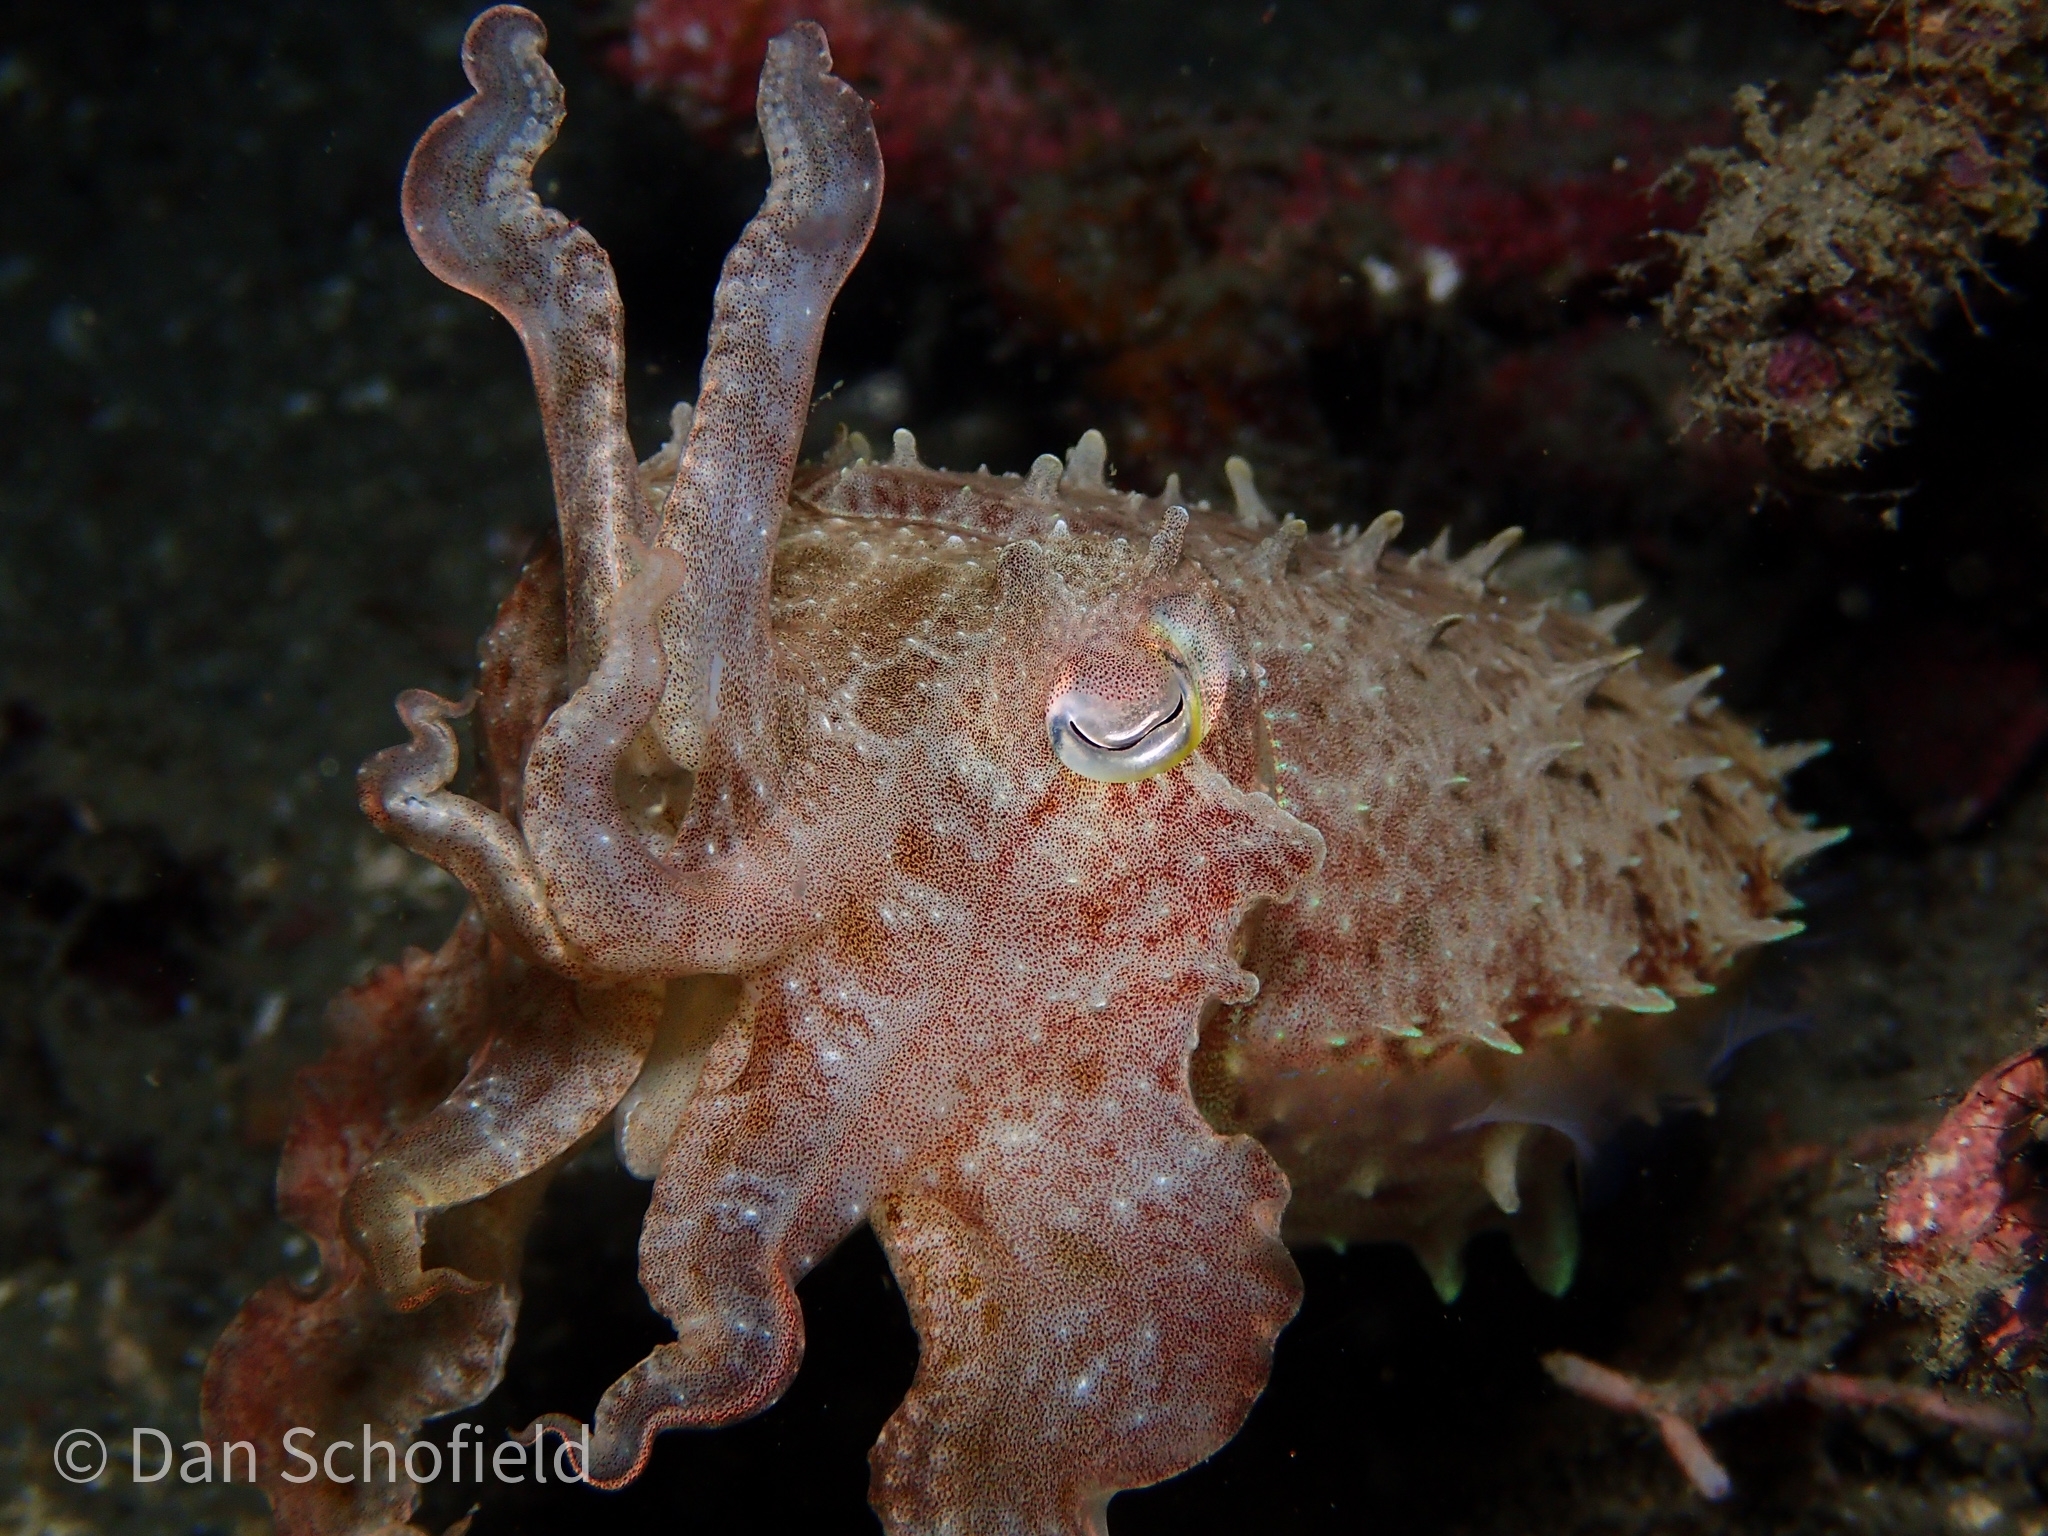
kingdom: Animalia
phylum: Mollusca
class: Cephalopoda
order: Sepiida
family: Sepiidae
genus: Ascarosepion
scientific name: Ascarosepion latimanus
